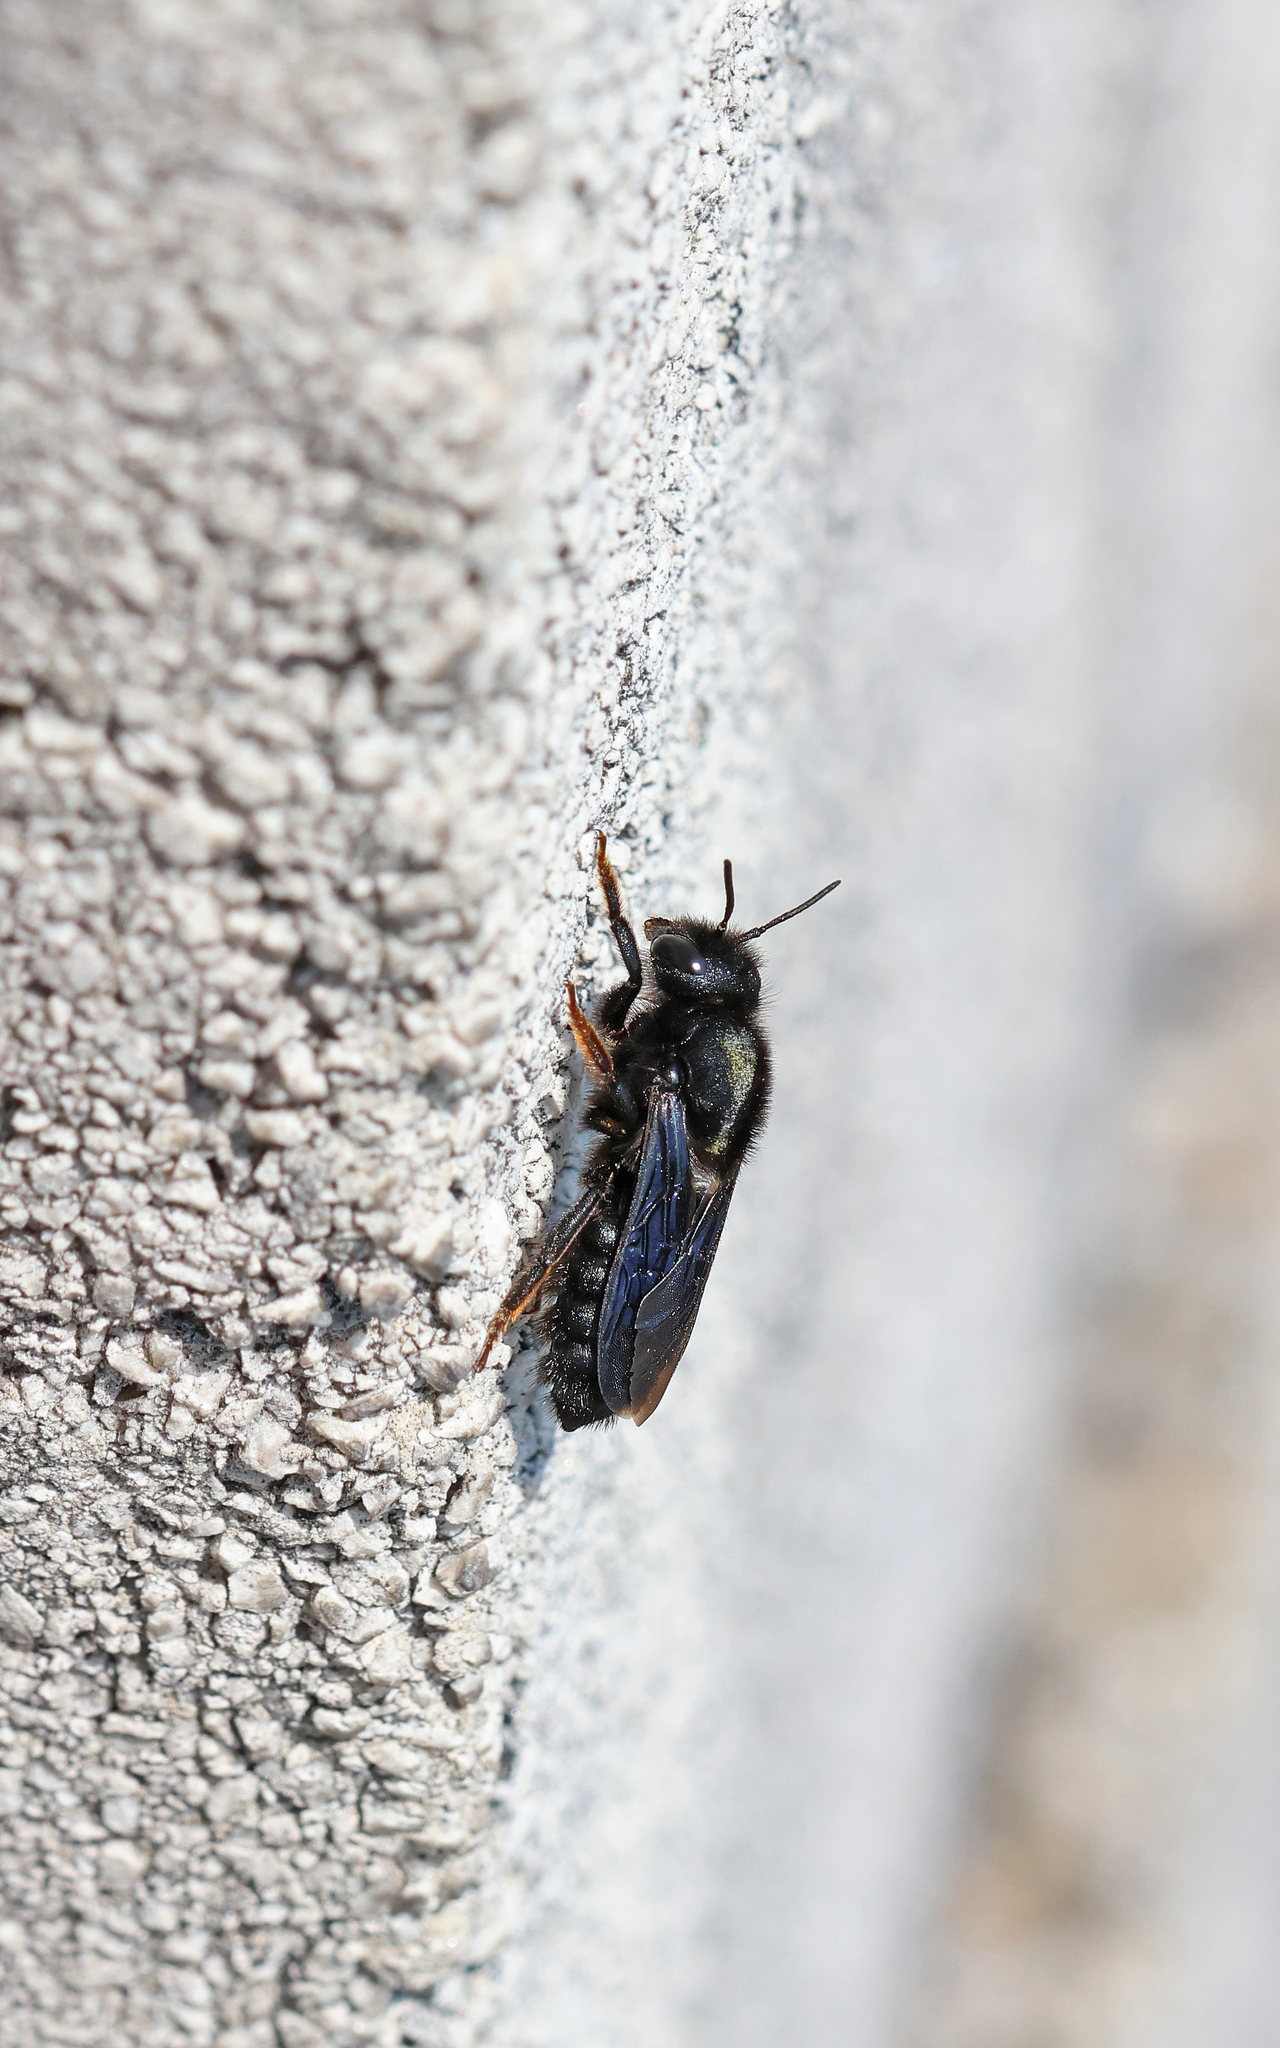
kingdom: Animalia
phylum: Arthropoda
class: Insecta
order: Hymenoptera
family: Megachilidae
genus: Megachile
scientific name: Megachile parietina
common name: Black mud bee
